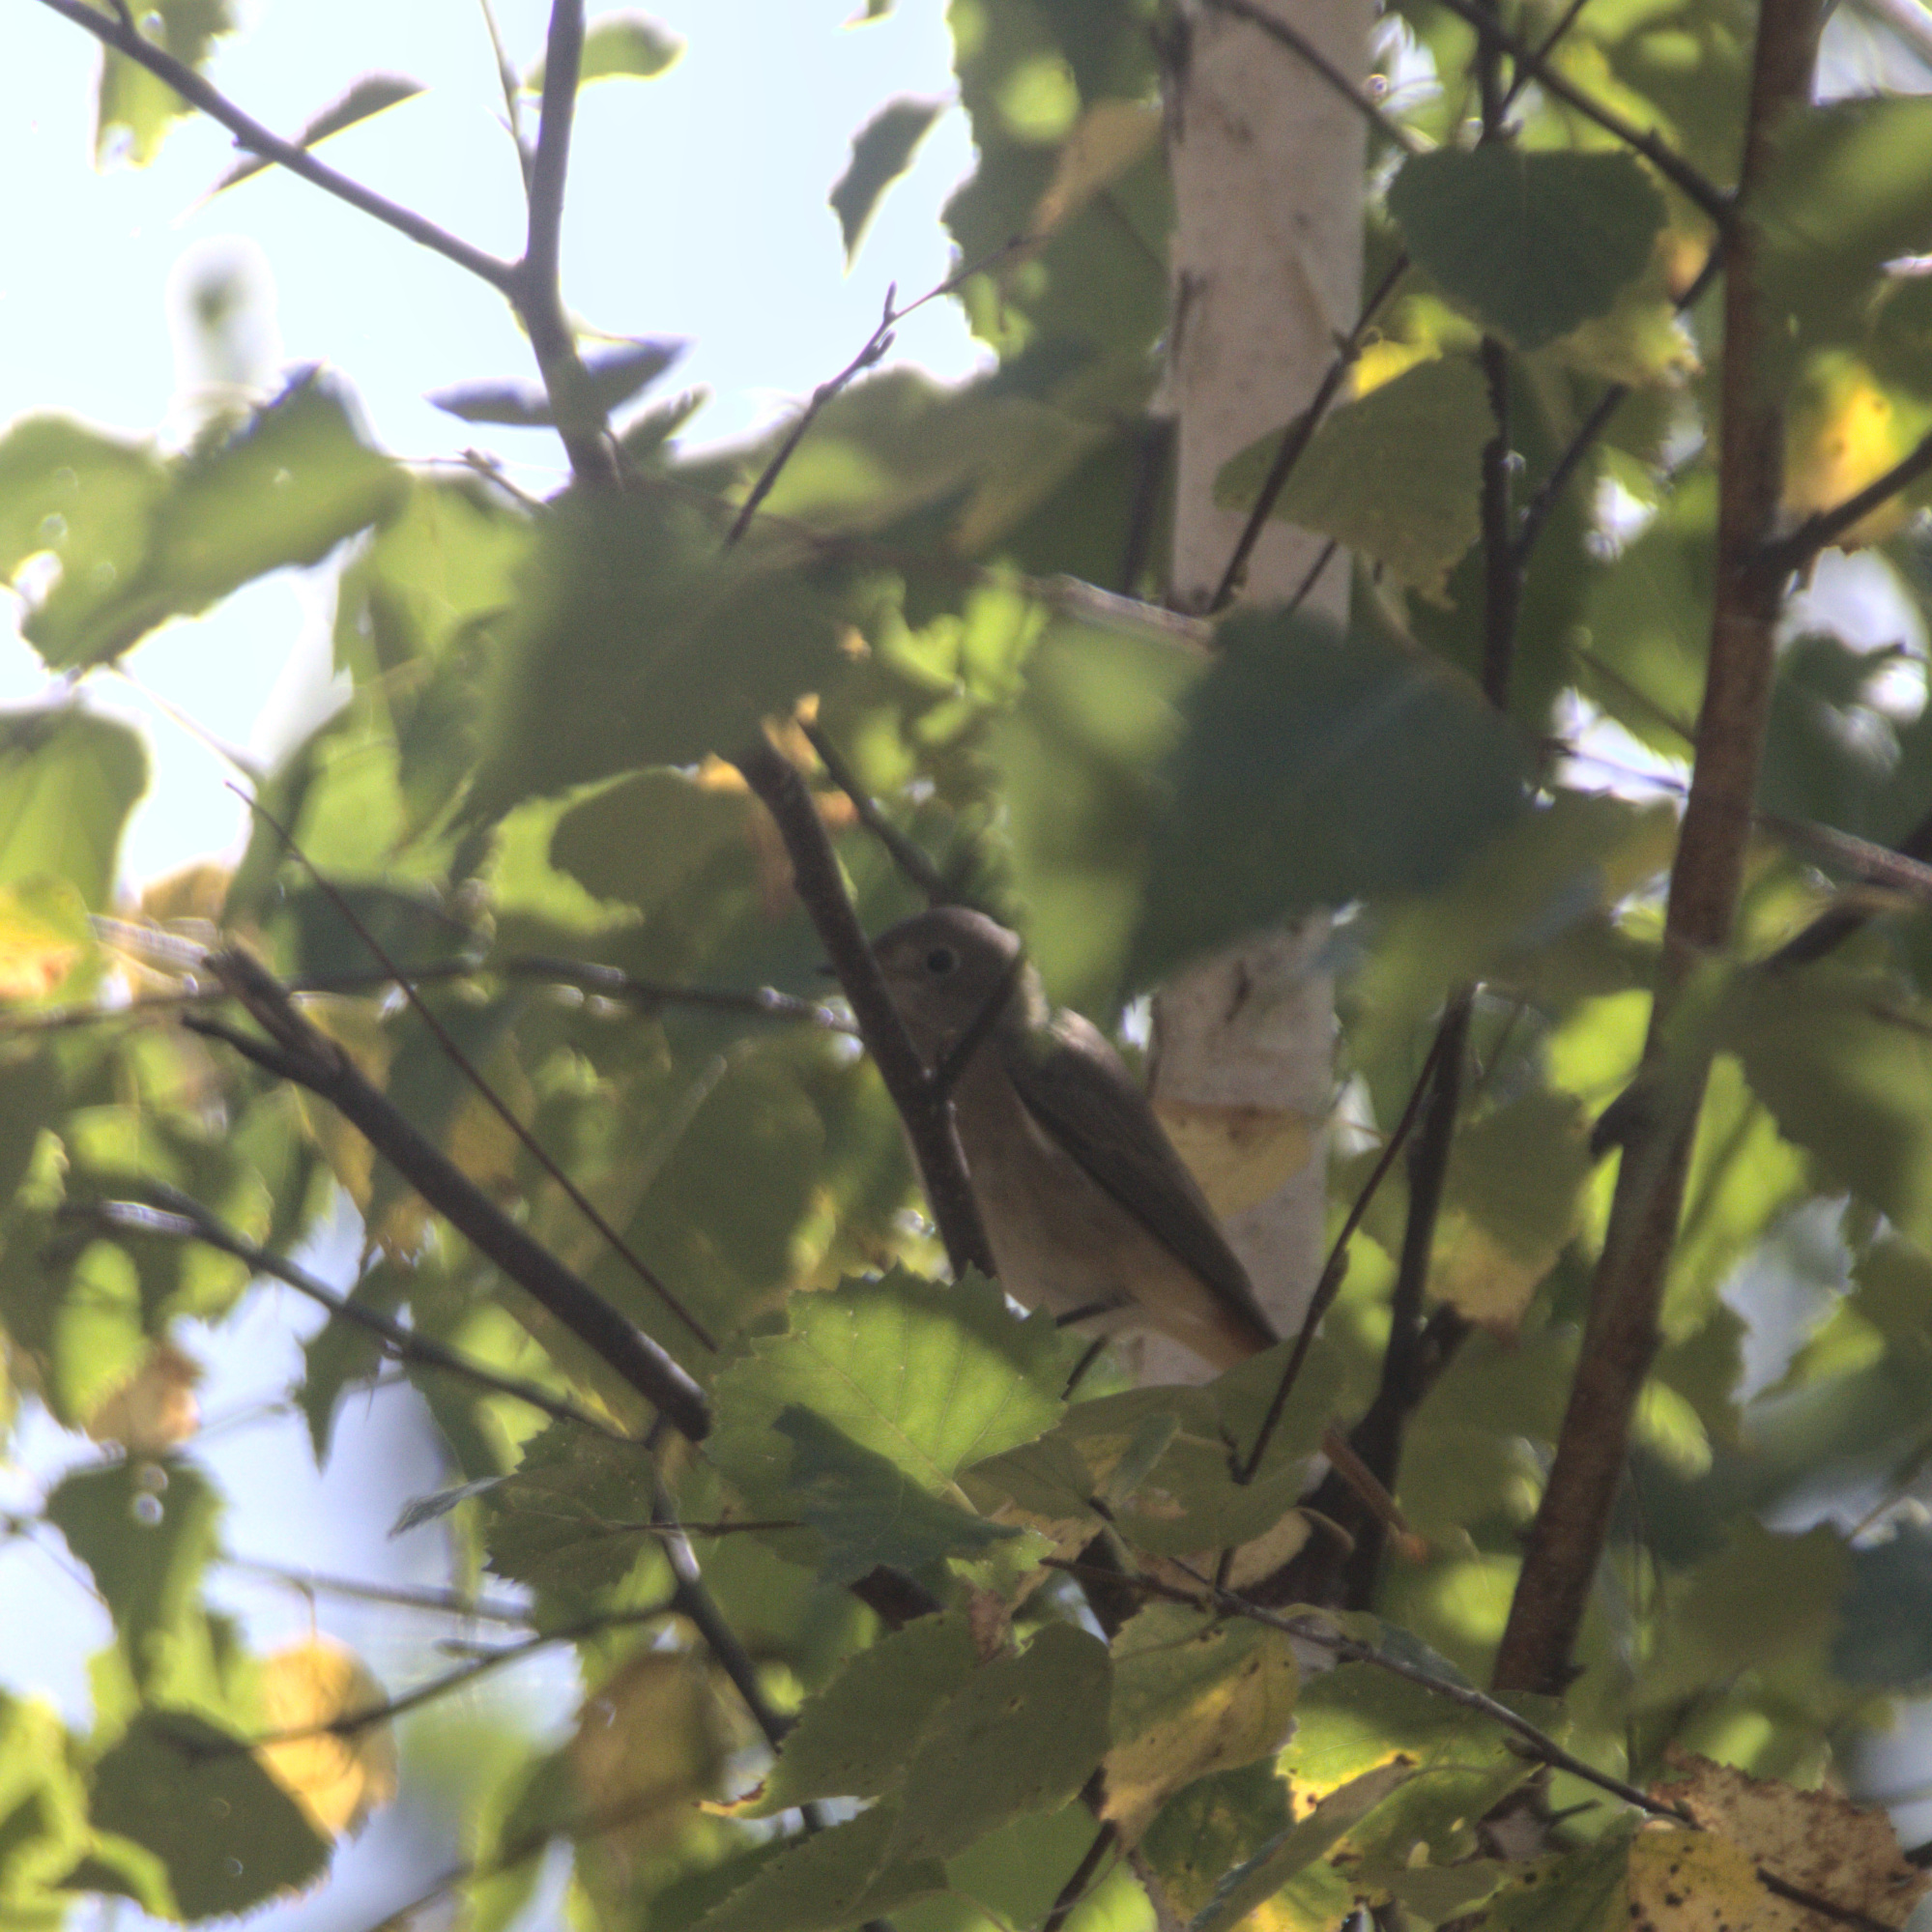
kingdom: Animalia
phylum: Chordata
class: Aves
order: Passeriformes
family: Muscicapidae
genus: Phoenicurus
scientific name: Phoenicurus phoenicurus
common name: Common redstart
